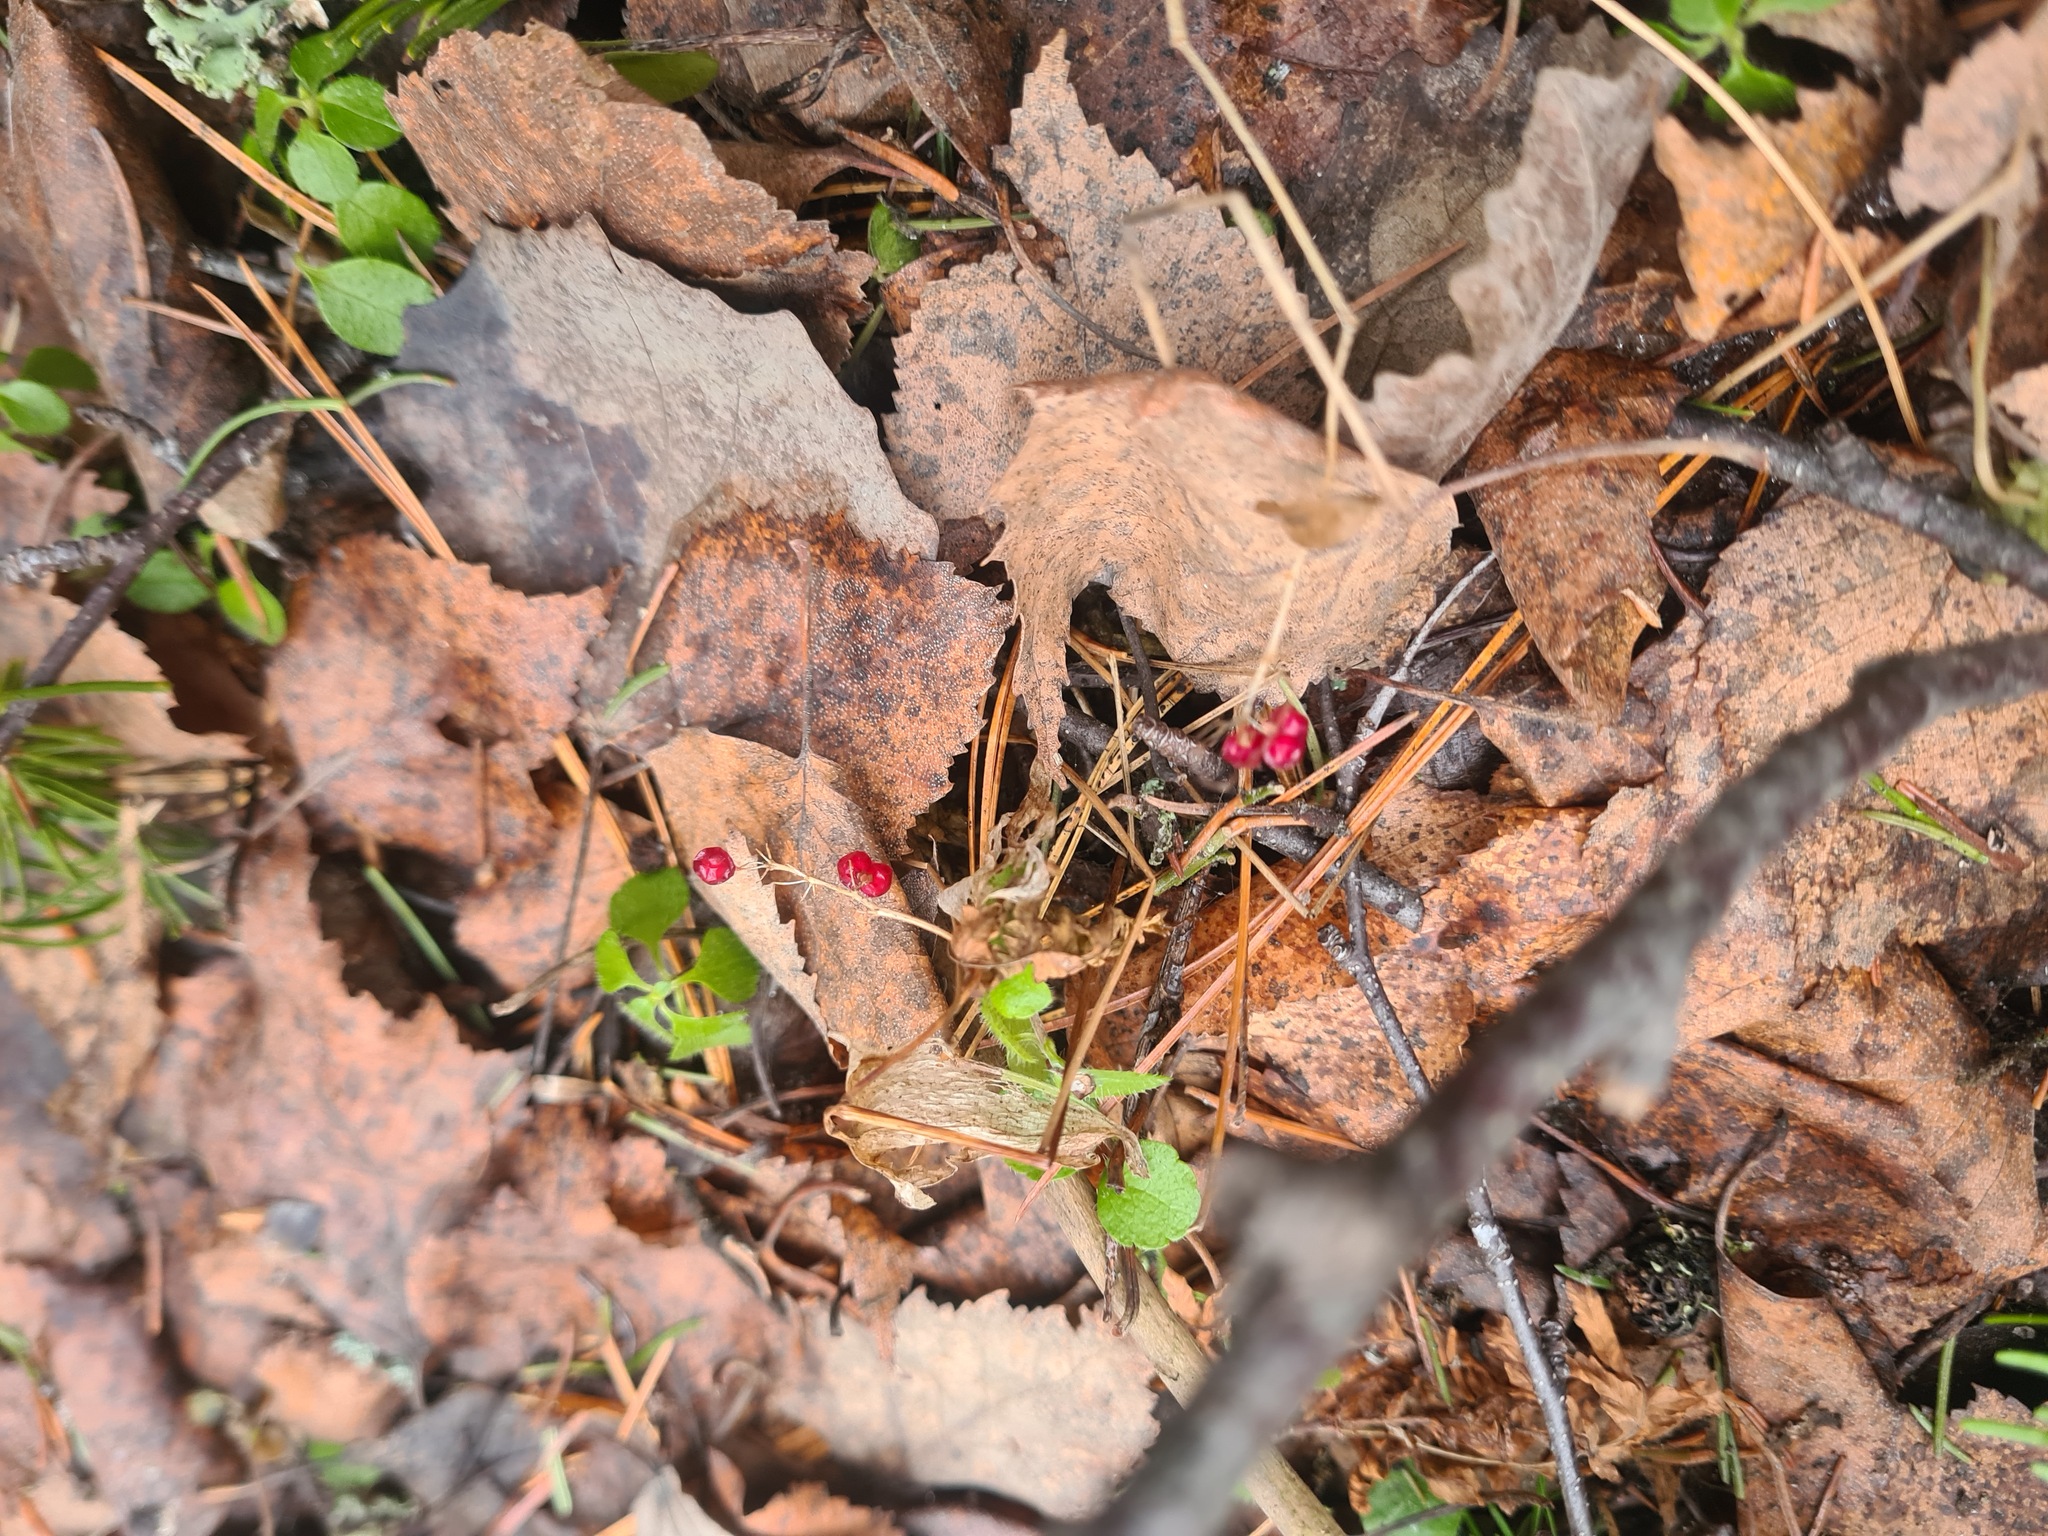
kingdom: Plantae
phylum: Tracheophyta
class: Liliopsida
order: Asparagales
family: Asparagaceae
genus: Maianthemum
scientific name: Maianthemum bifolium
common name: May lily
